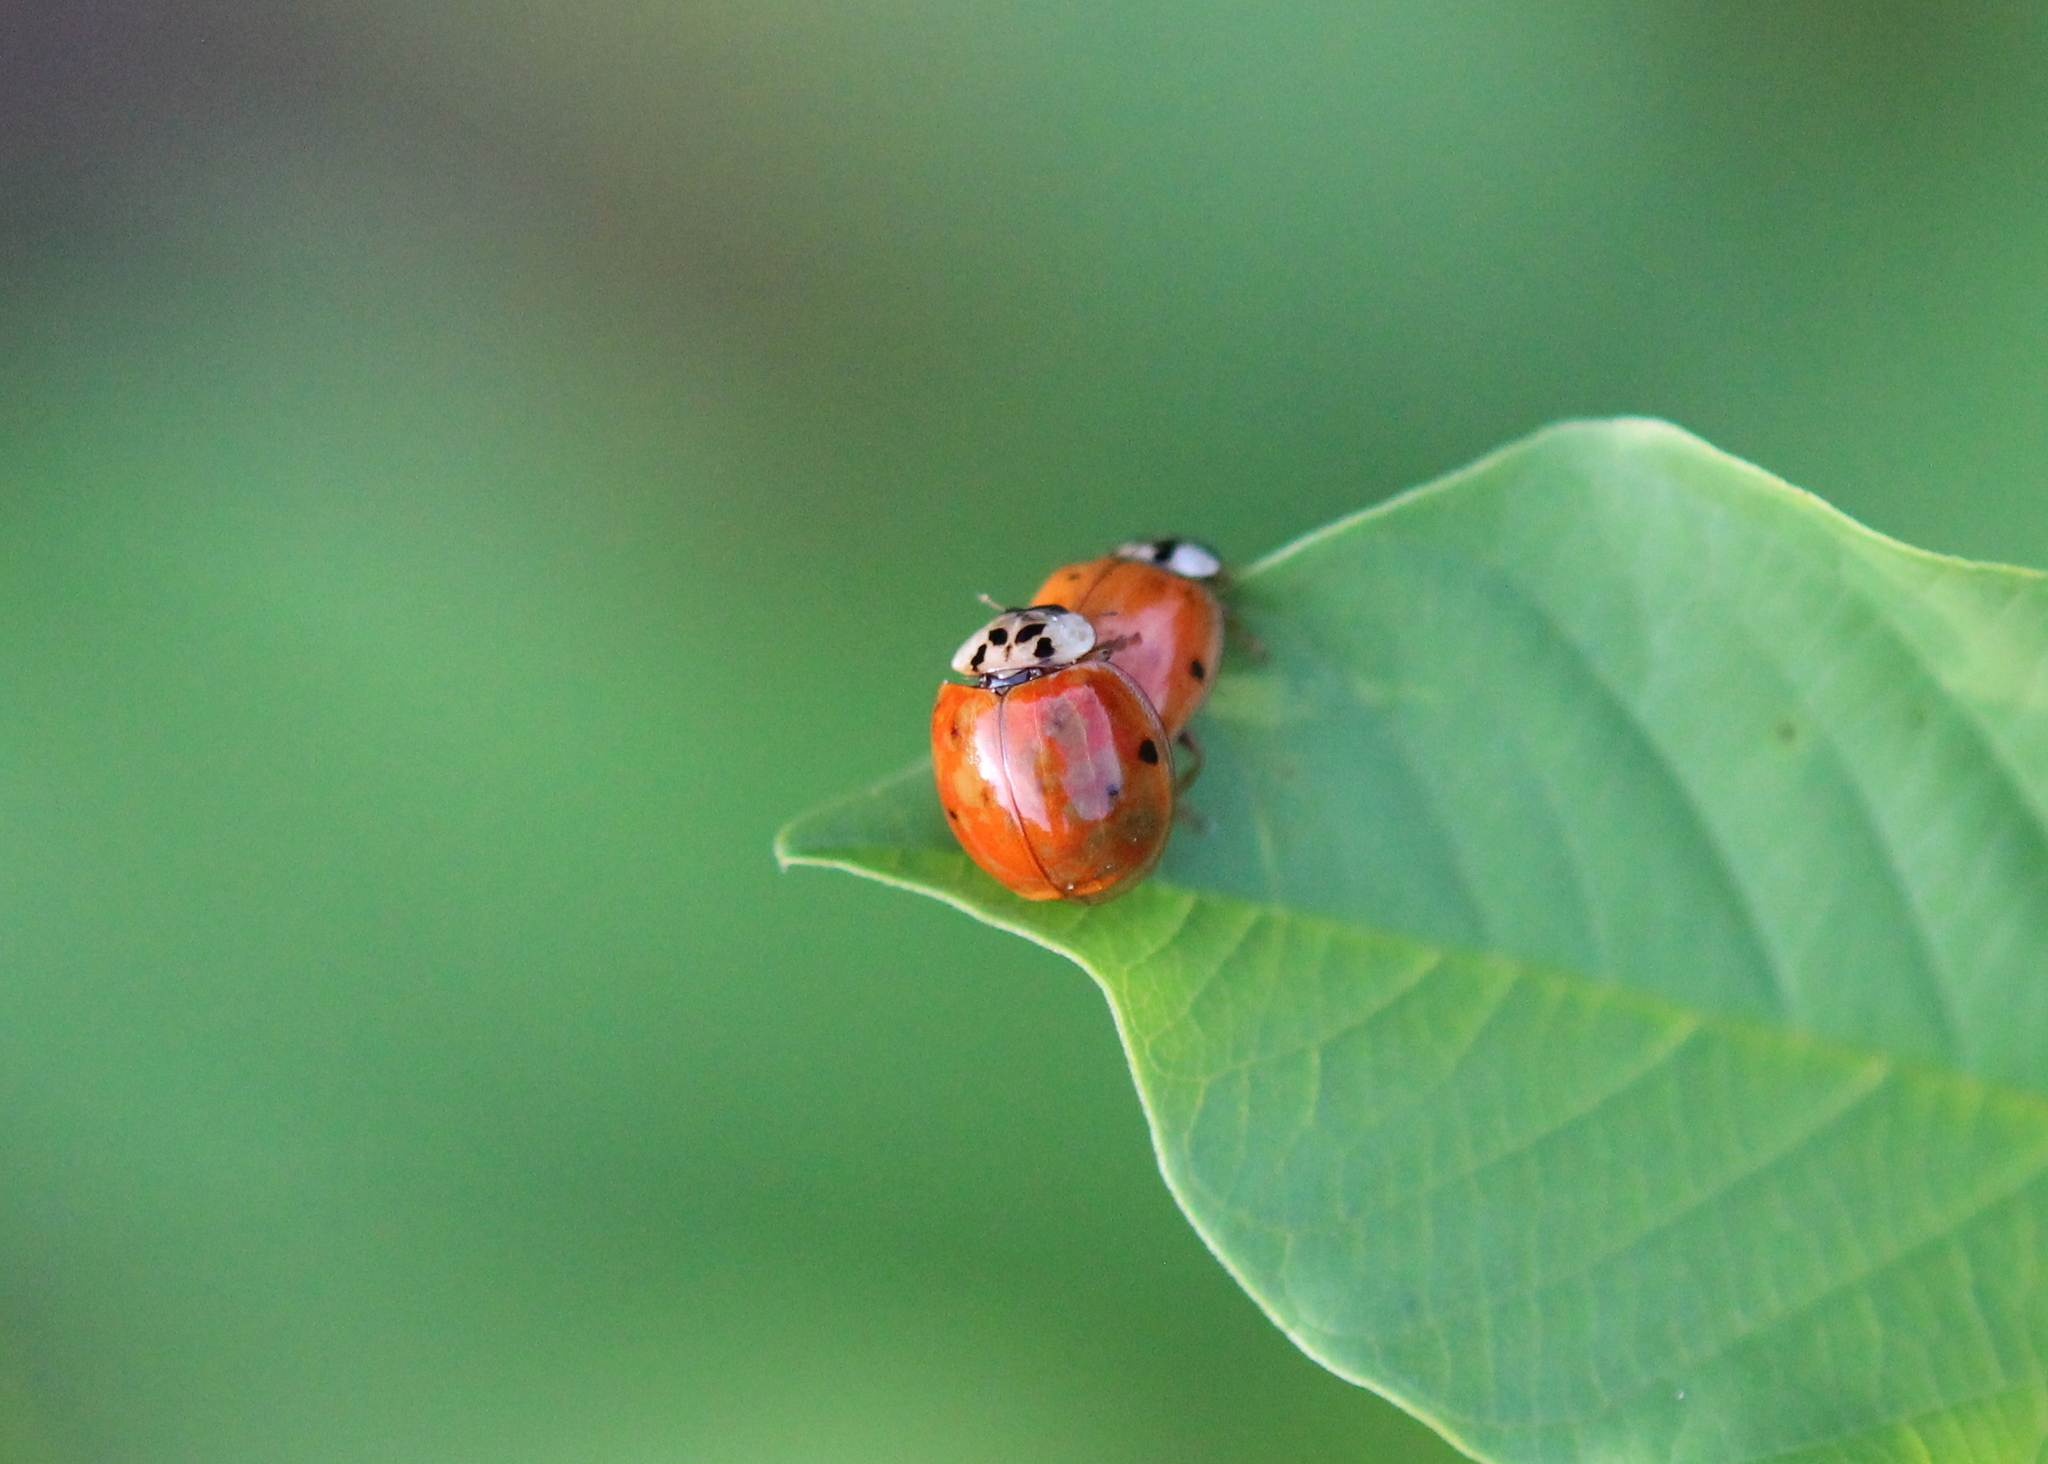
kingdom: Animalia
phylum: Arthropoda
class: Insecta
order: Coleoptera
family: Coccinellidae
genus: Harmonia
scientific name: Harmonia axyridis
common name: Harlequin ladybird
